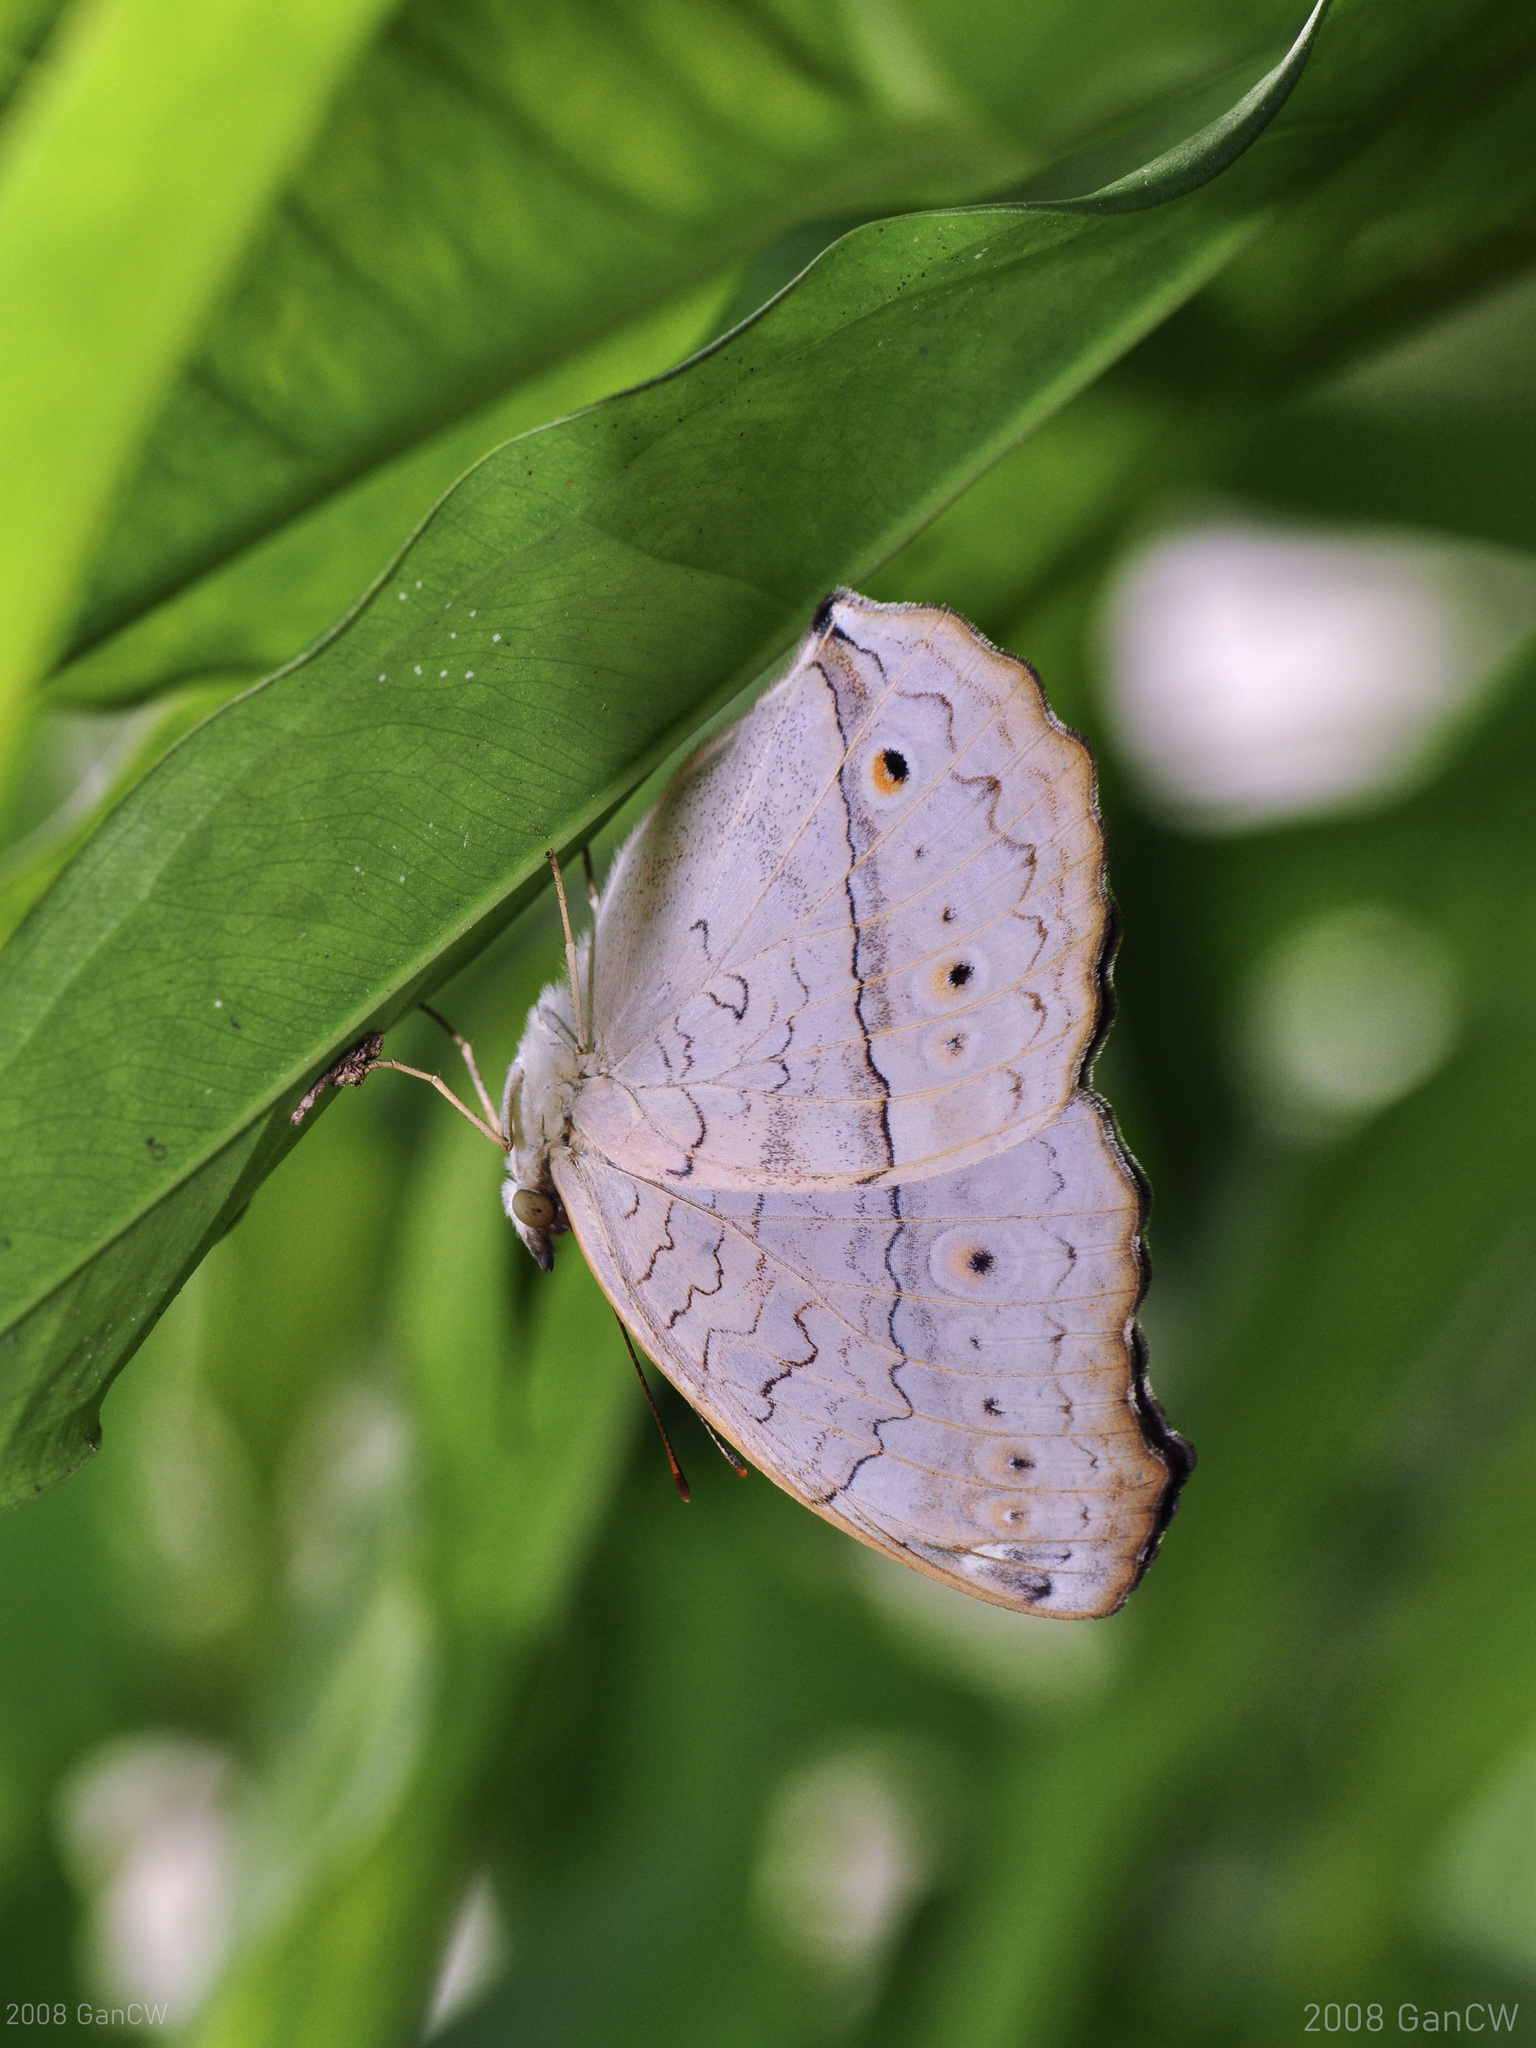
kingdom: Animalia
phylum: Arthropoda
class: Insecta
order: Lepidoptera
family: Nymphalidae
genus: Junonia
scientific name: Junonia atlites
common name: Grey pansy
